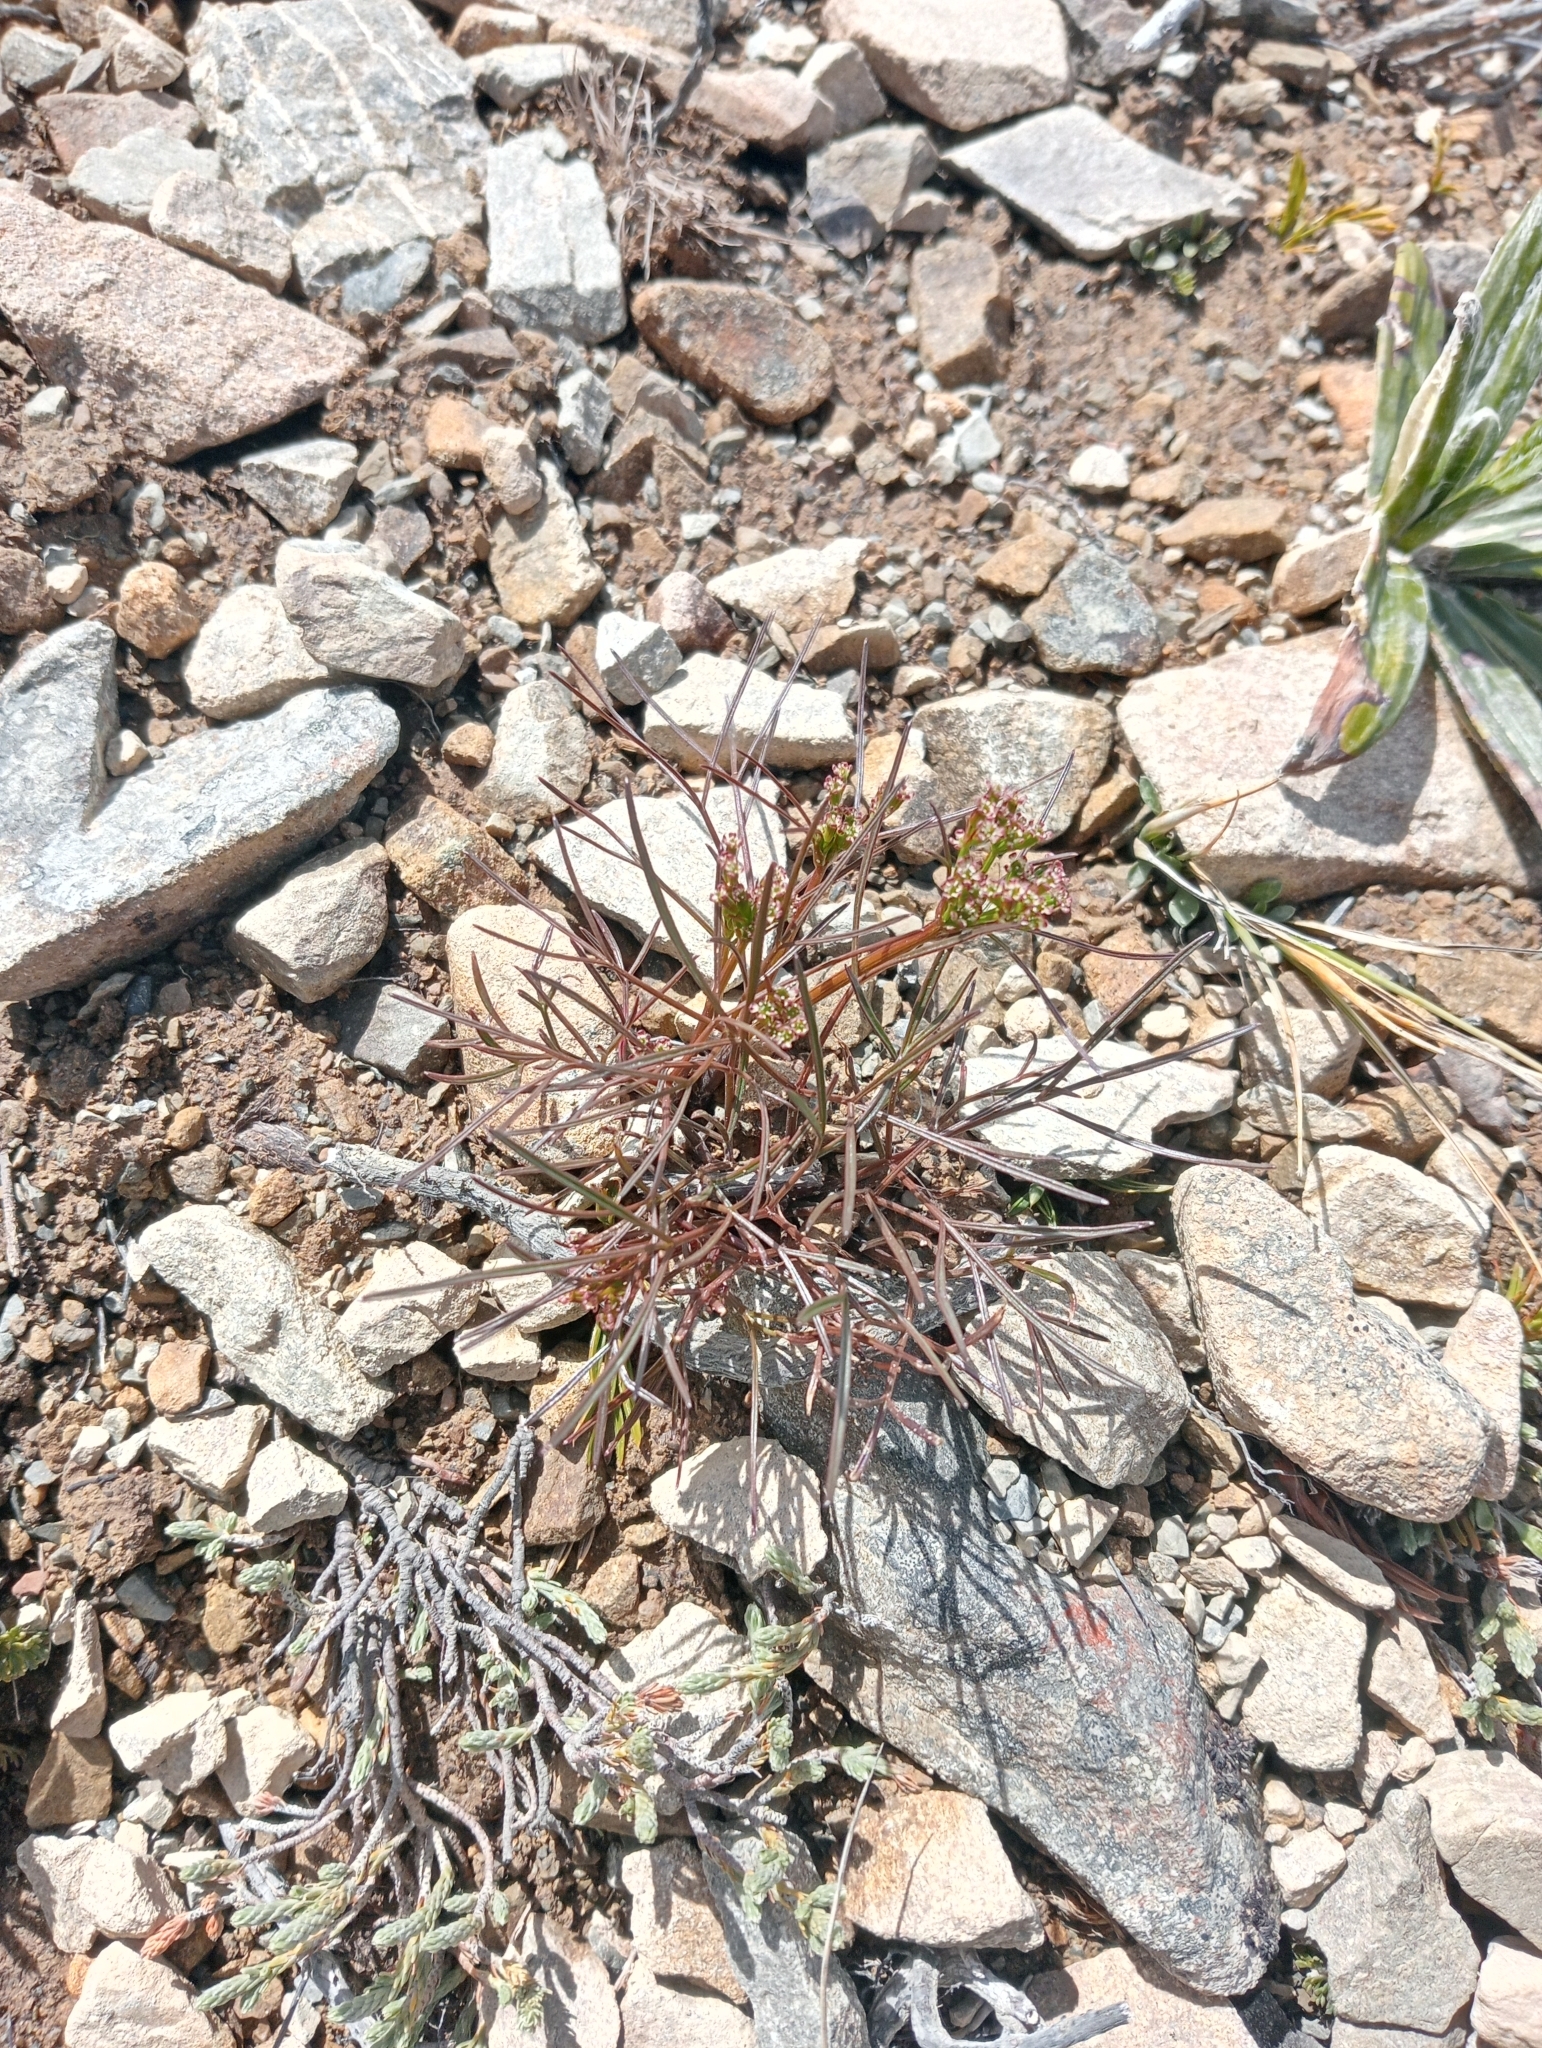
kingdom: Plantae
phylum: Tracheophyta
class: Magnoliopsida
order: Apiales
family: Apiaceae
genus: Anisotome
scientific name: Anisotome filifolia
